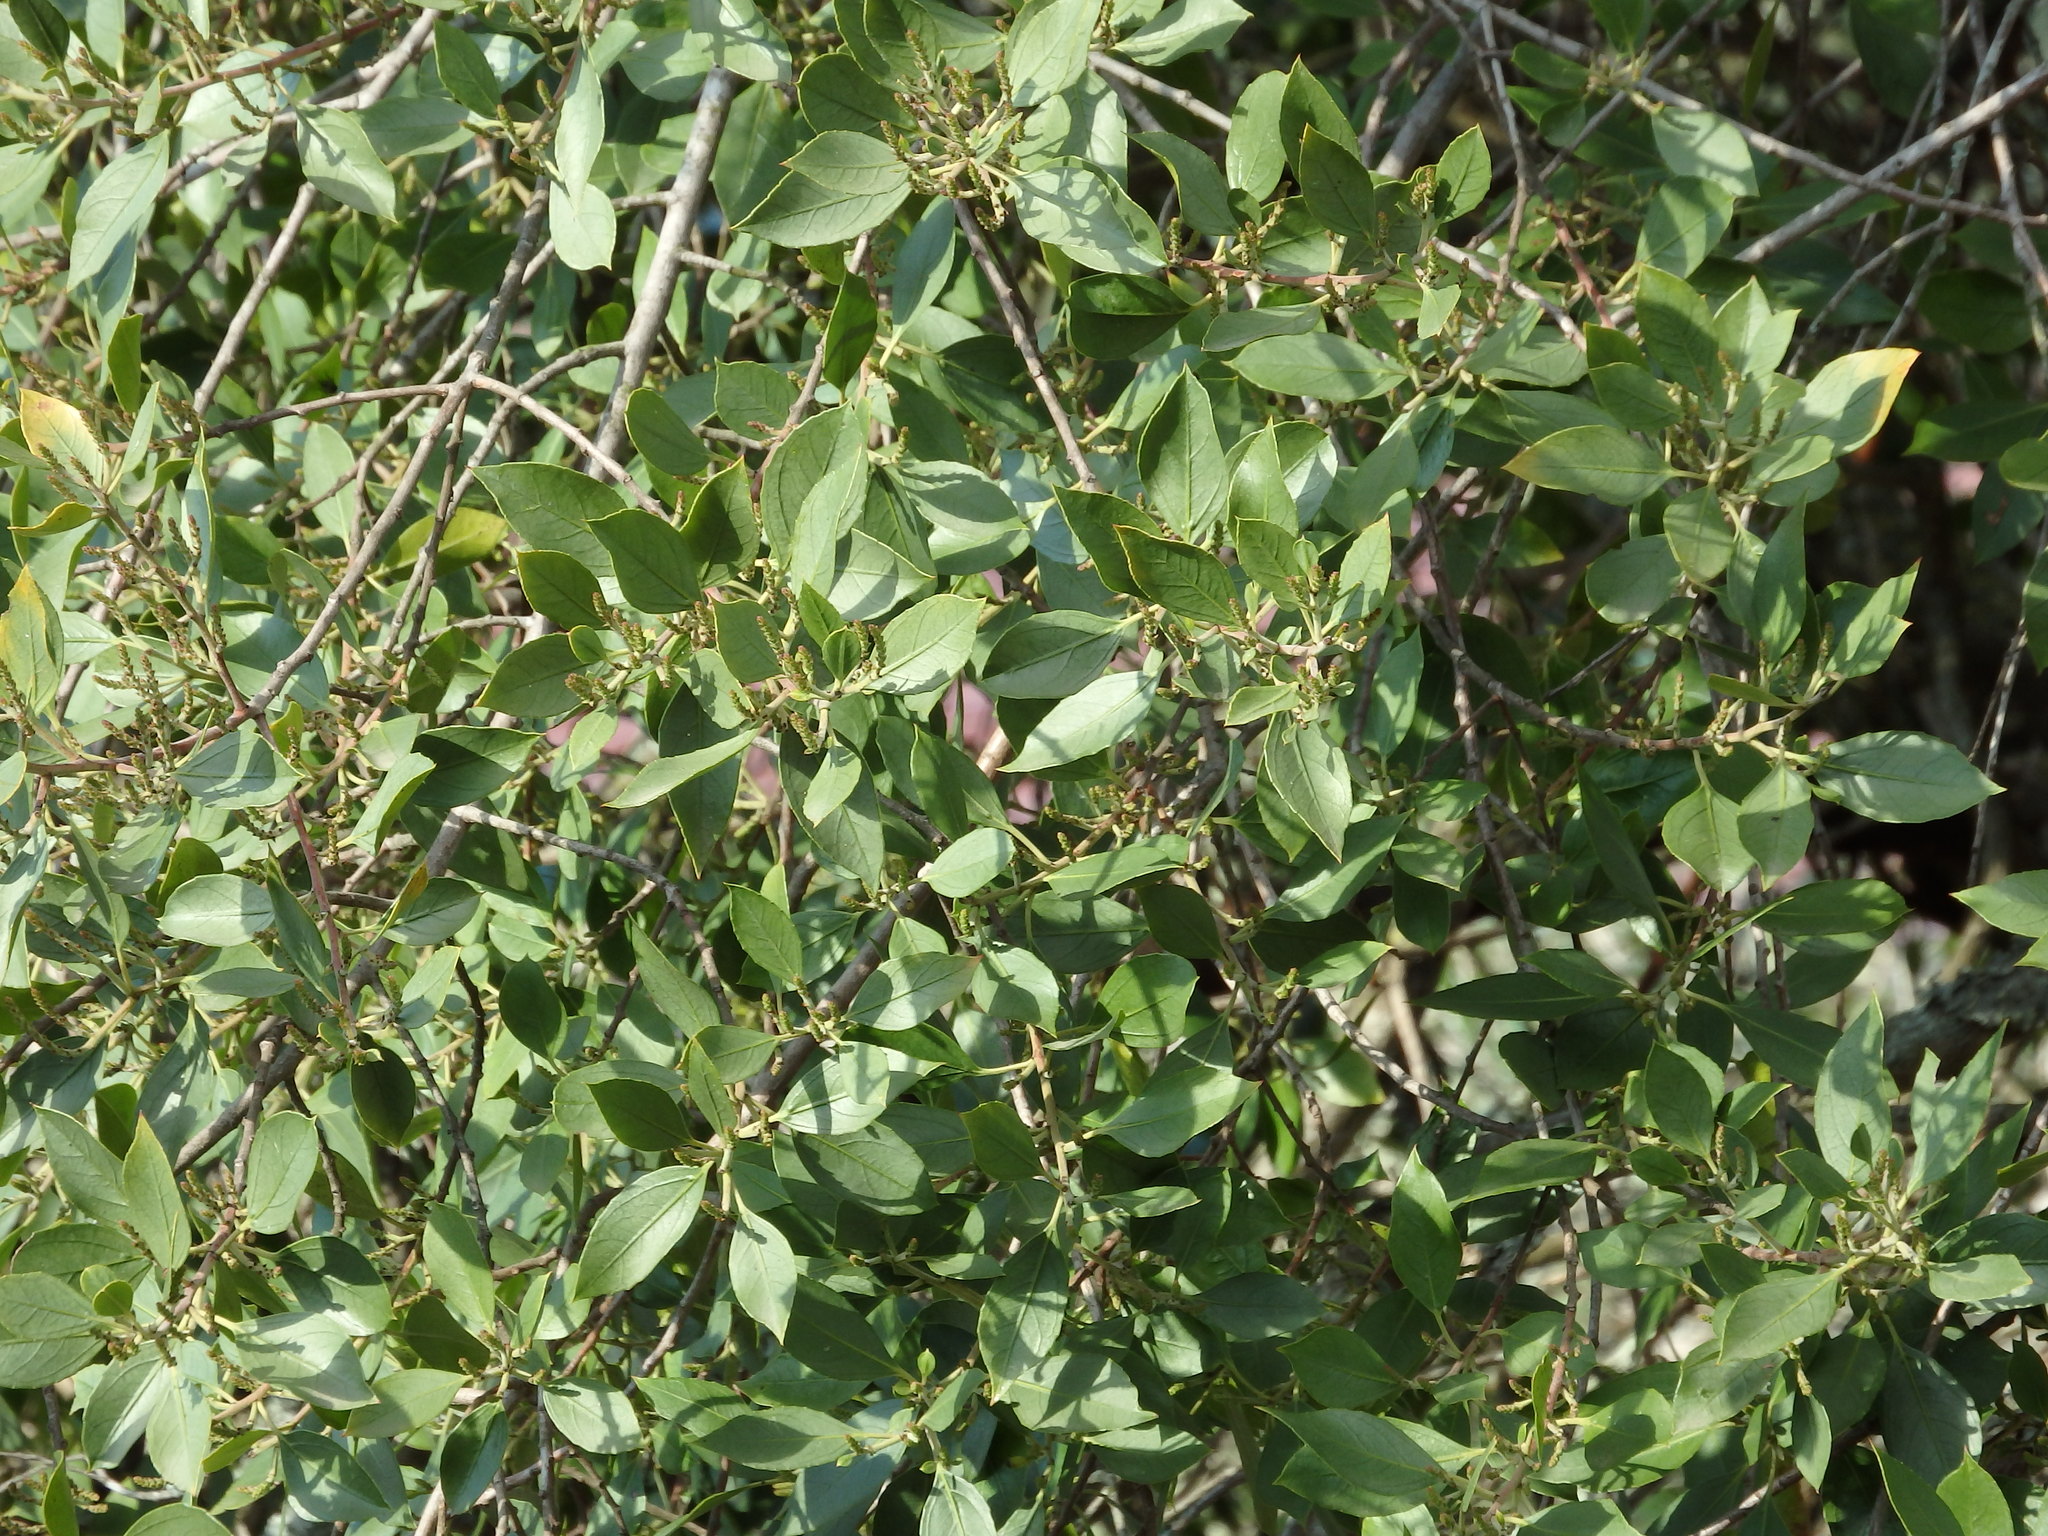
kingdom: Plantae
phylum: Tracheophyta
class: Magnoliopsida
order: Rosales
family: Rhamnaceae
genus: Rhamnus
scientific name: Rhamnus alaternus
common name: Mediterranean buckthorn
